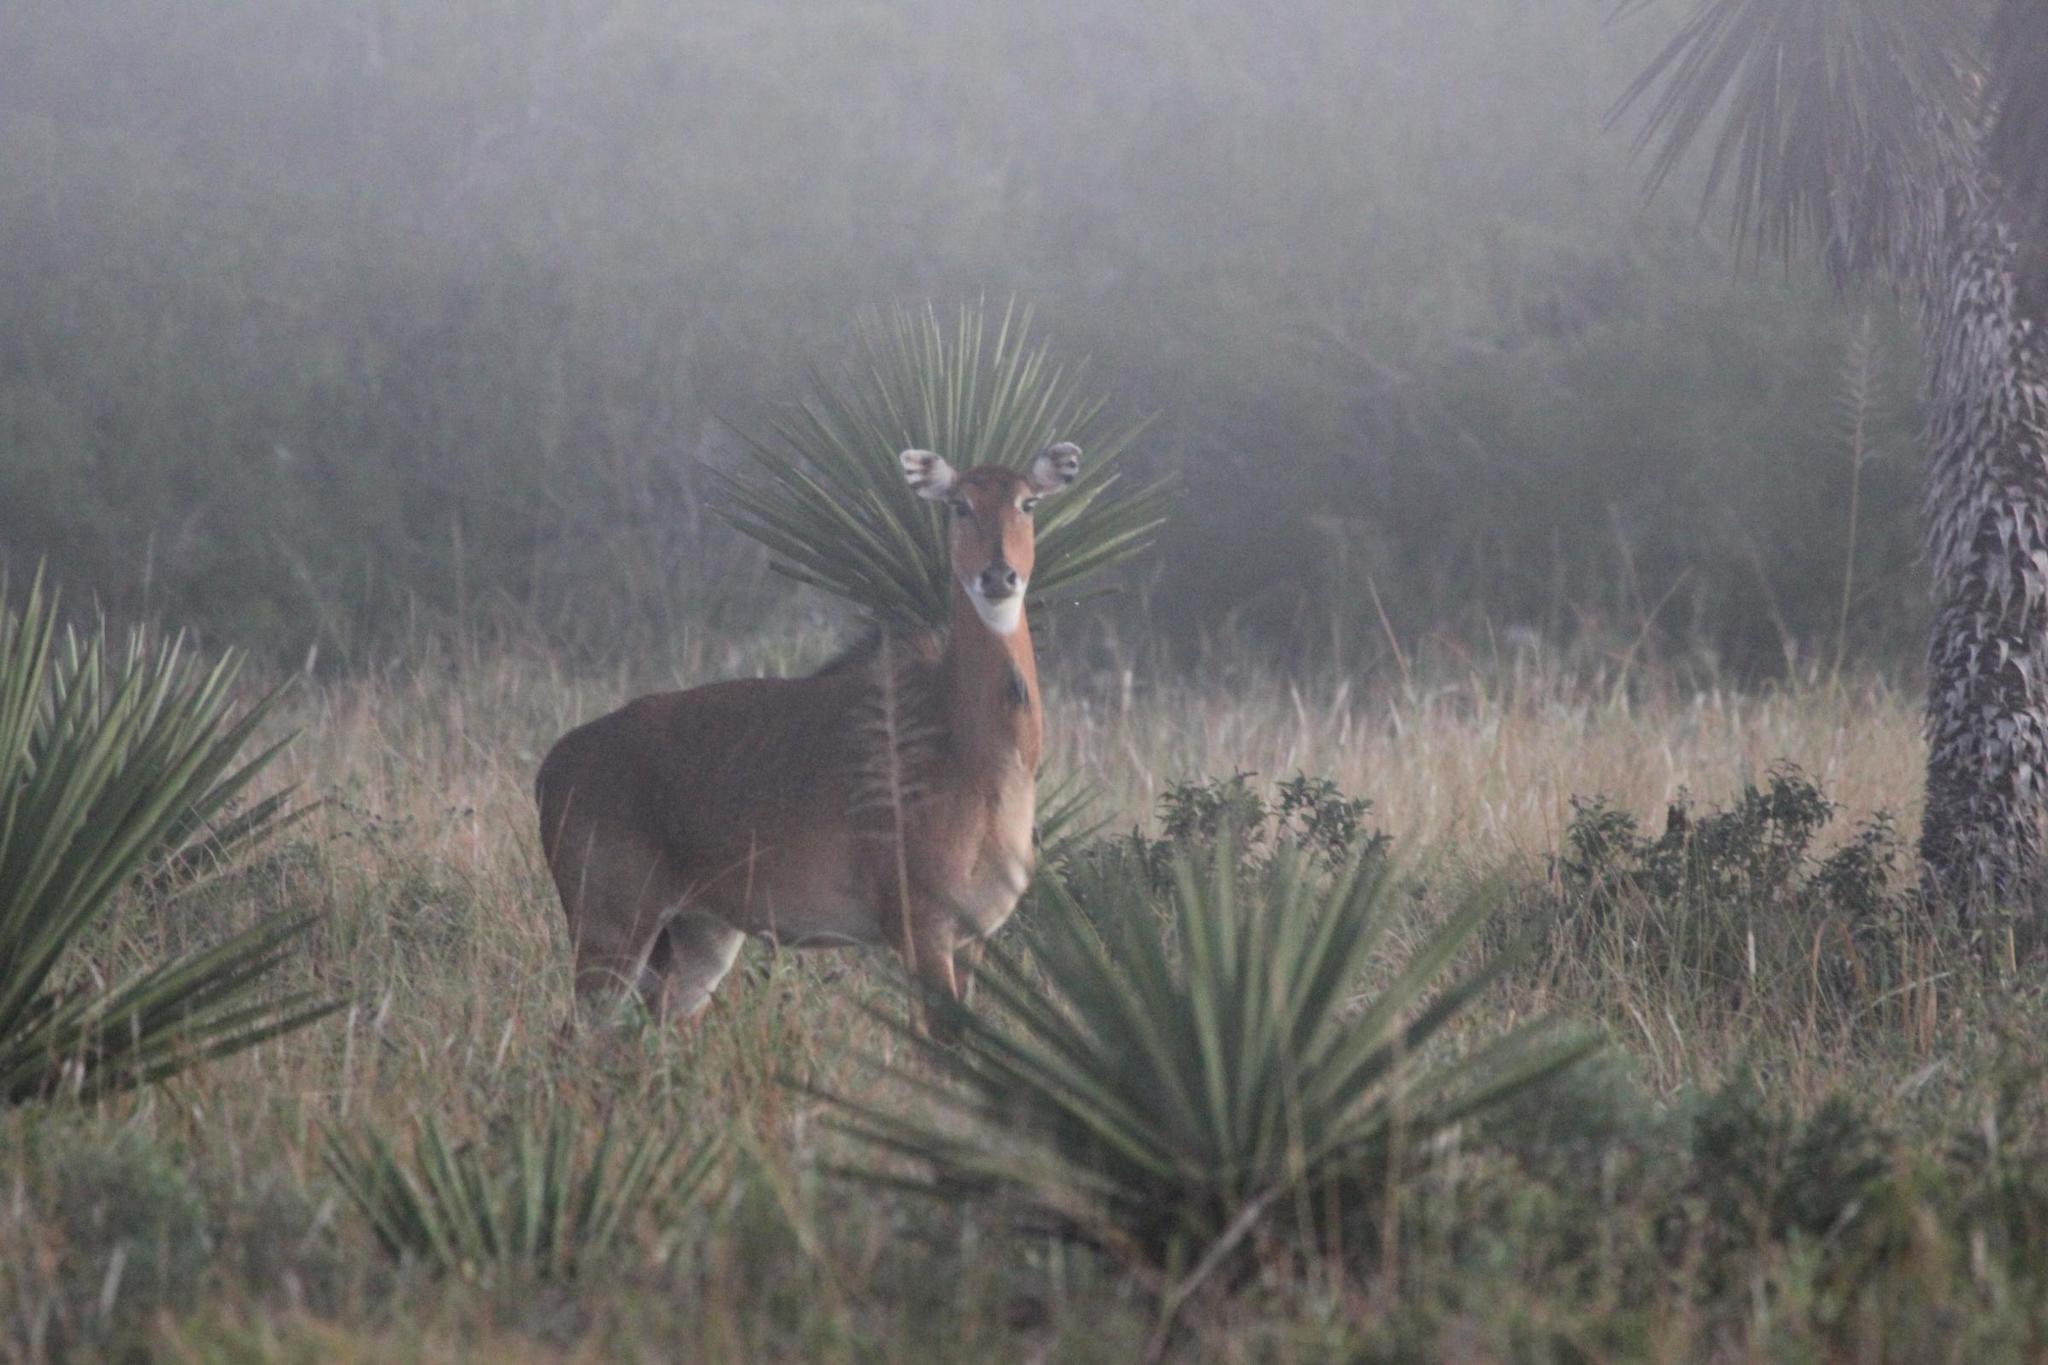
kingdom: Animalia
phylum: Chordata
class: Mammalia
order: Artiodactyla
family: Bovidae
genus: Boselaphus
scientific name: Boselaphus tragocamelus
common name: Nilgai
